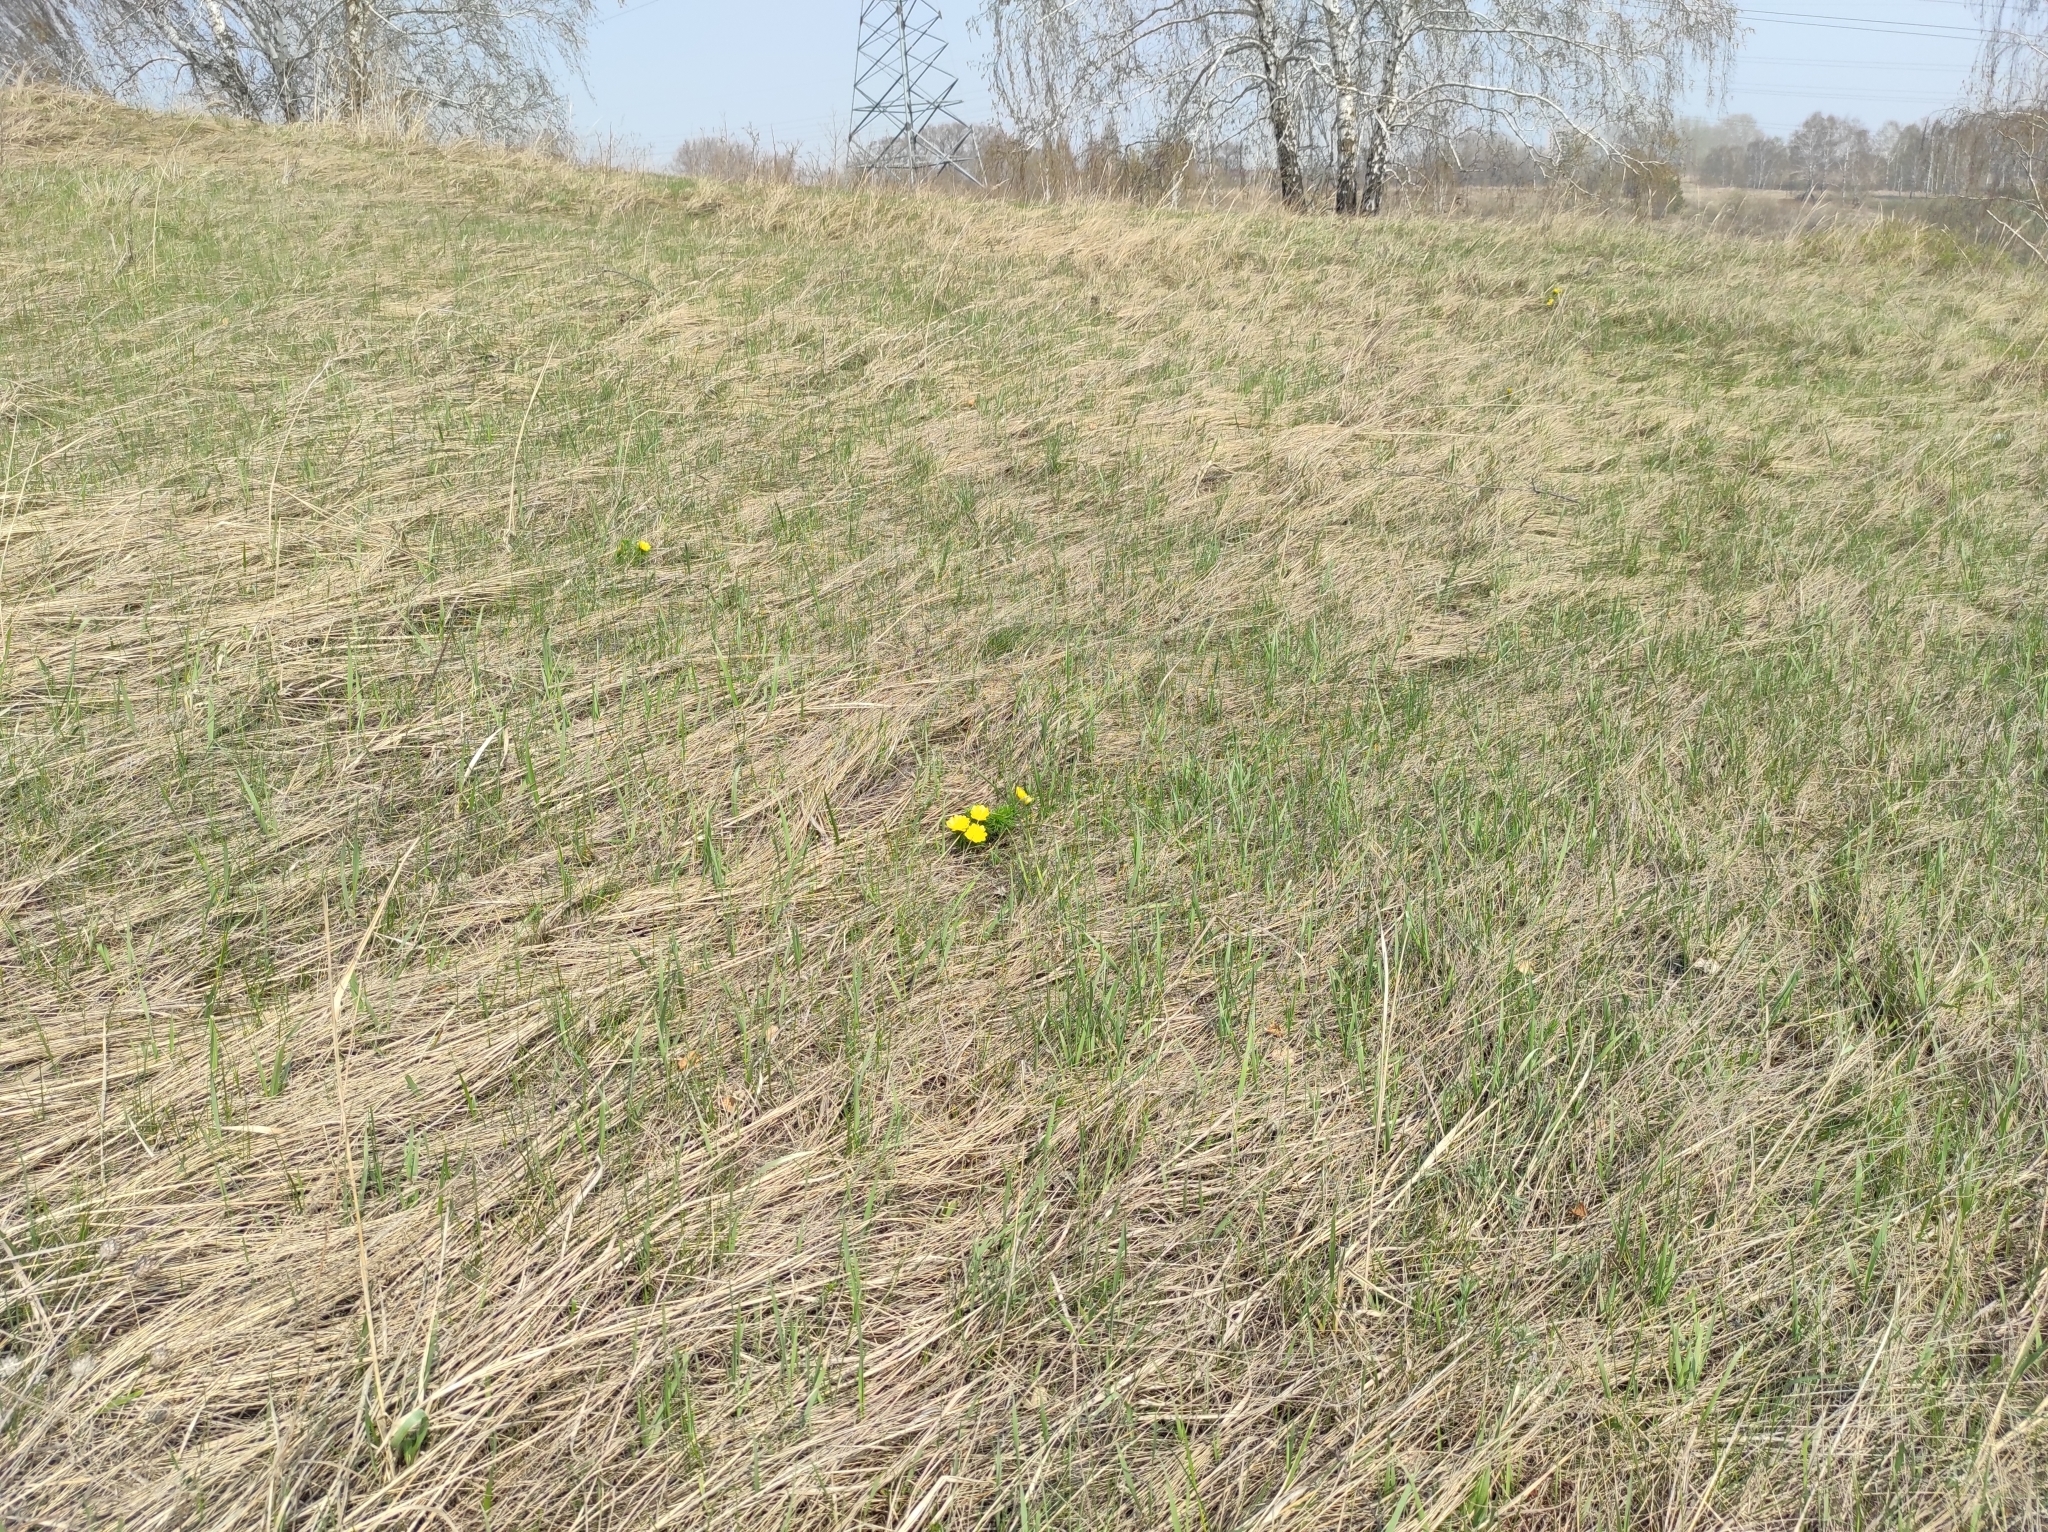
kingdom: Plantae
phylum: Tracheophyta
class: Magnoliopsida
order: Ranunculales
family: Ranunculaceae
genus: Adonis
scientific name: Adonis vernalis
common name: Yellow pheasants-eye
